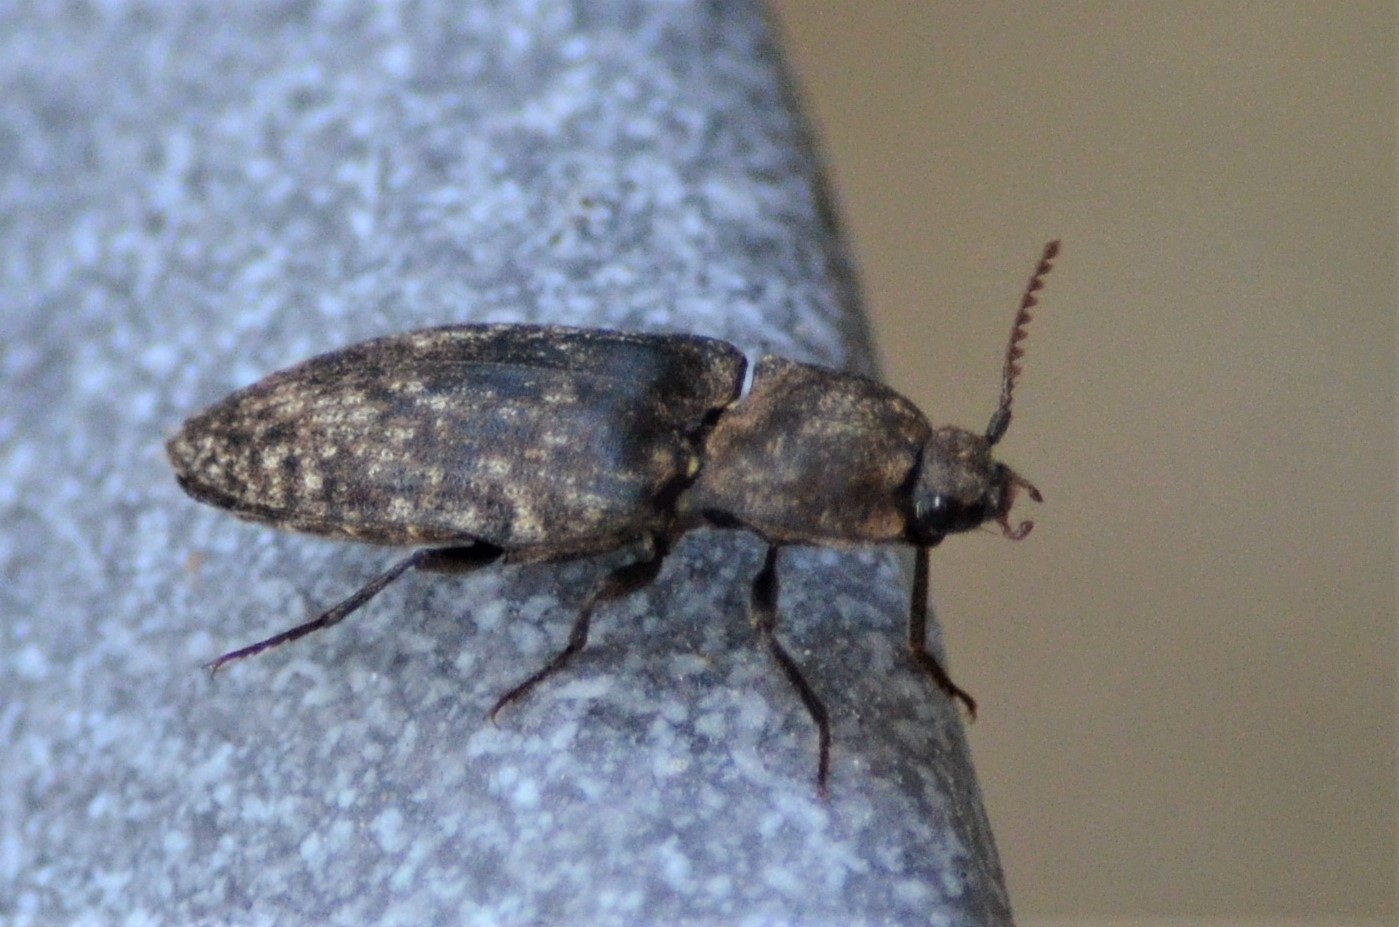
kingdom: Animalia
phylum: Arthropoda
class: Insecta
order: Coleoptera
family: Elateridae
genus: Agrypnus
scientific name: Agrypnus murinus
